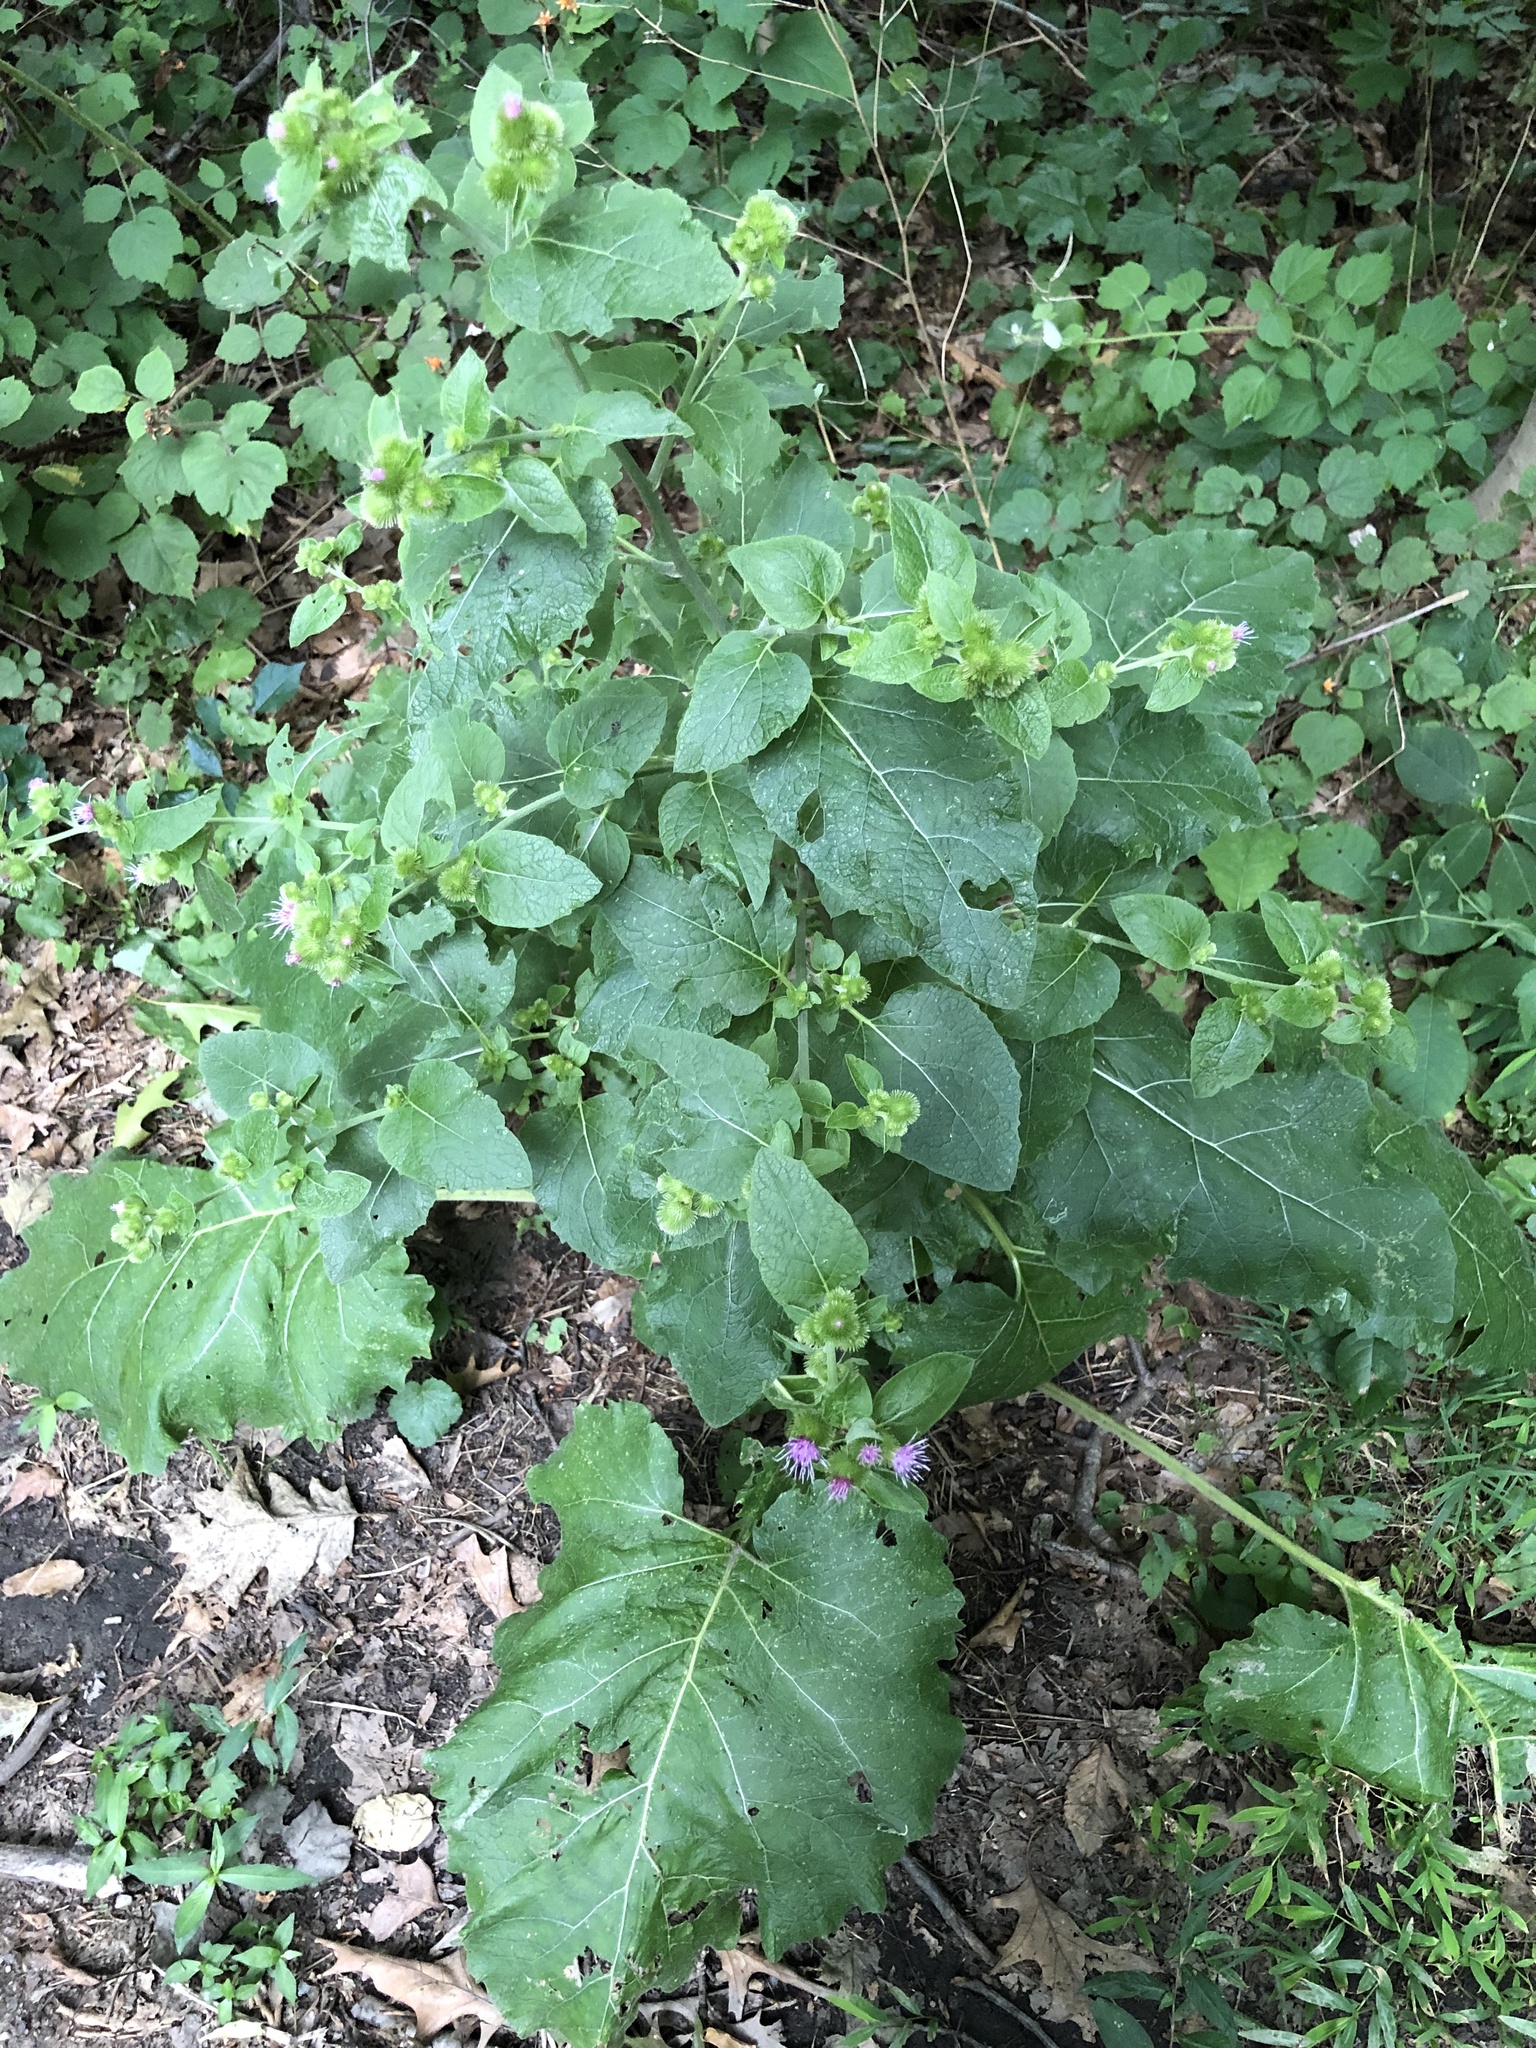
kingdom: Plantae
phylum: Tracheophyta
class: Magnoliopsida
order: Asterales
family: Asteraceae
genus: Arctium
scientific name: Arctium minus
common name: Lesser burdock
